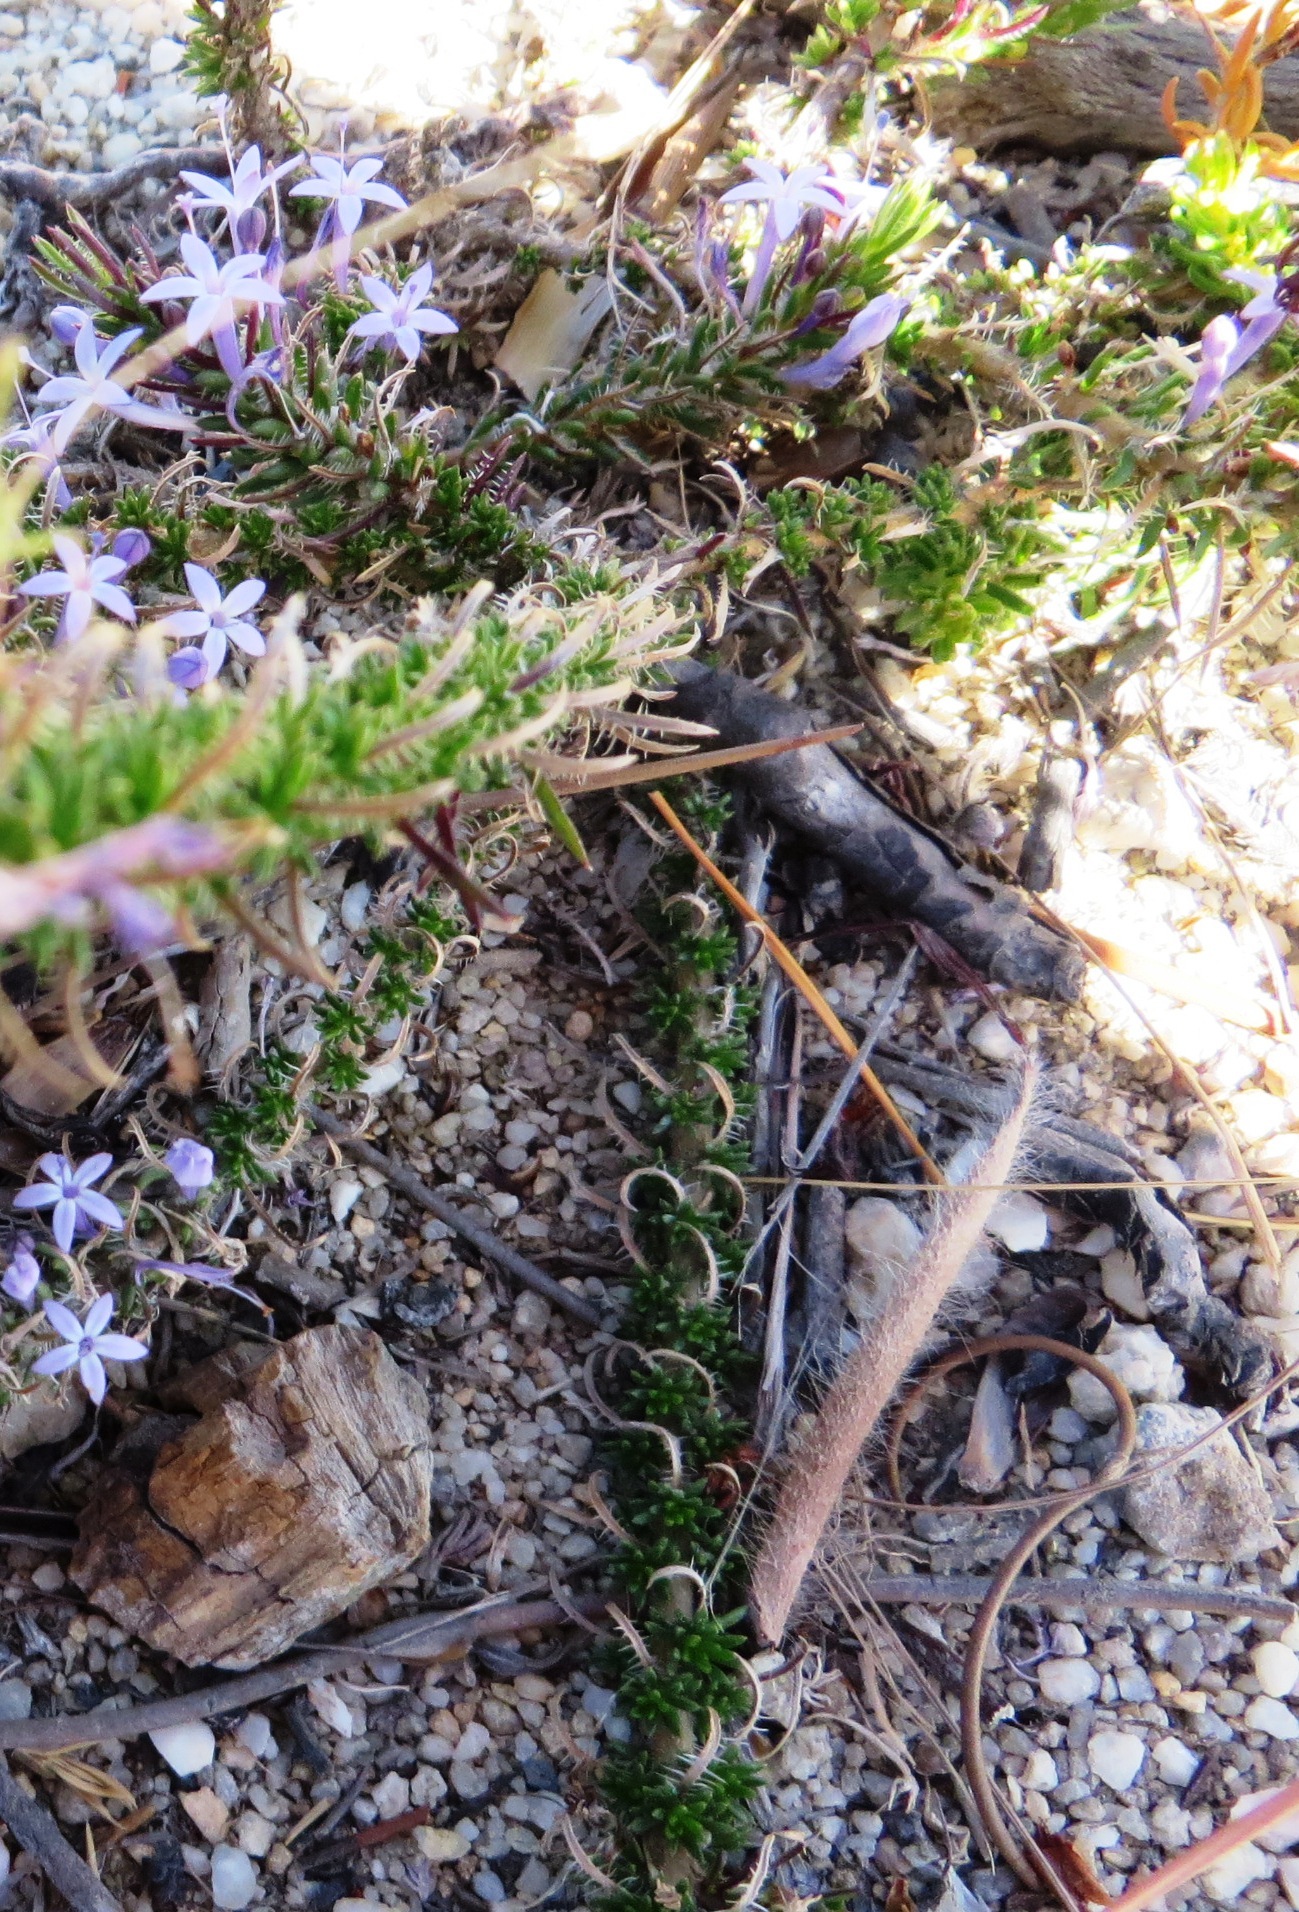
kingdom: Plantae
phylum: Tracheophyta
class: Magnoliopsida
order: Asterales
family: Campanulaceae
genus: Merciera
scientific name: Merciera eckloniana
